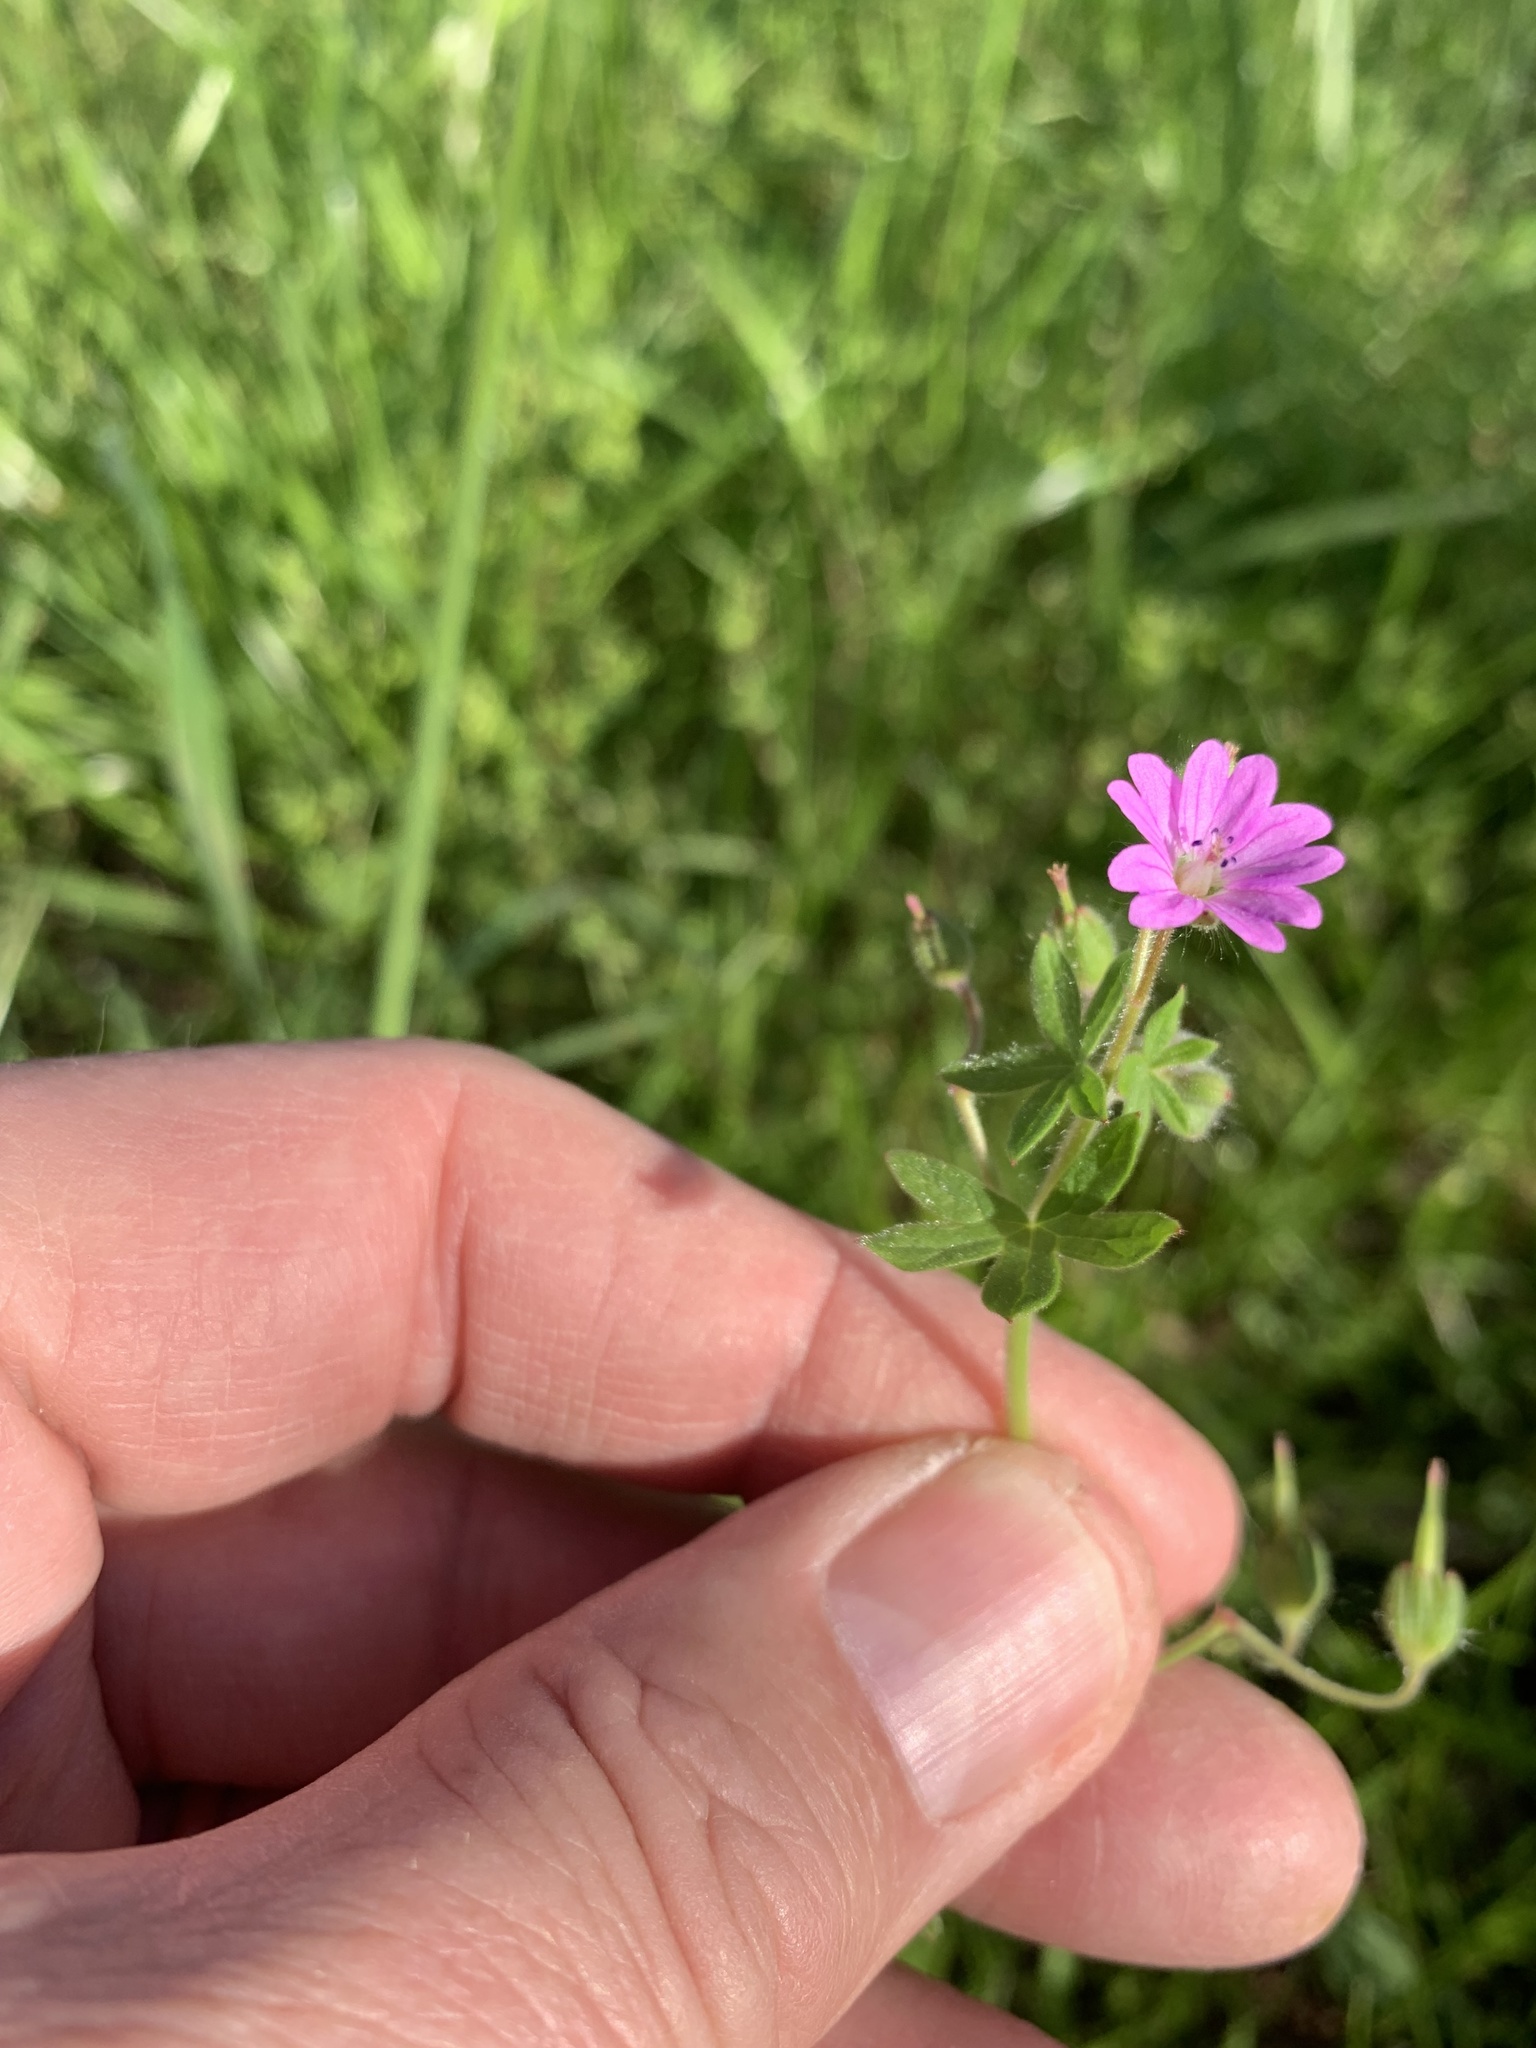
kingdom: Plantae
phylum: Tracheophyta
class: Magnoliopsida
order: Geraniales
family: Geraniaceae
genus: Geranium
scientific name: Geranium molle
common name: Dove's-foot crane's-bill
